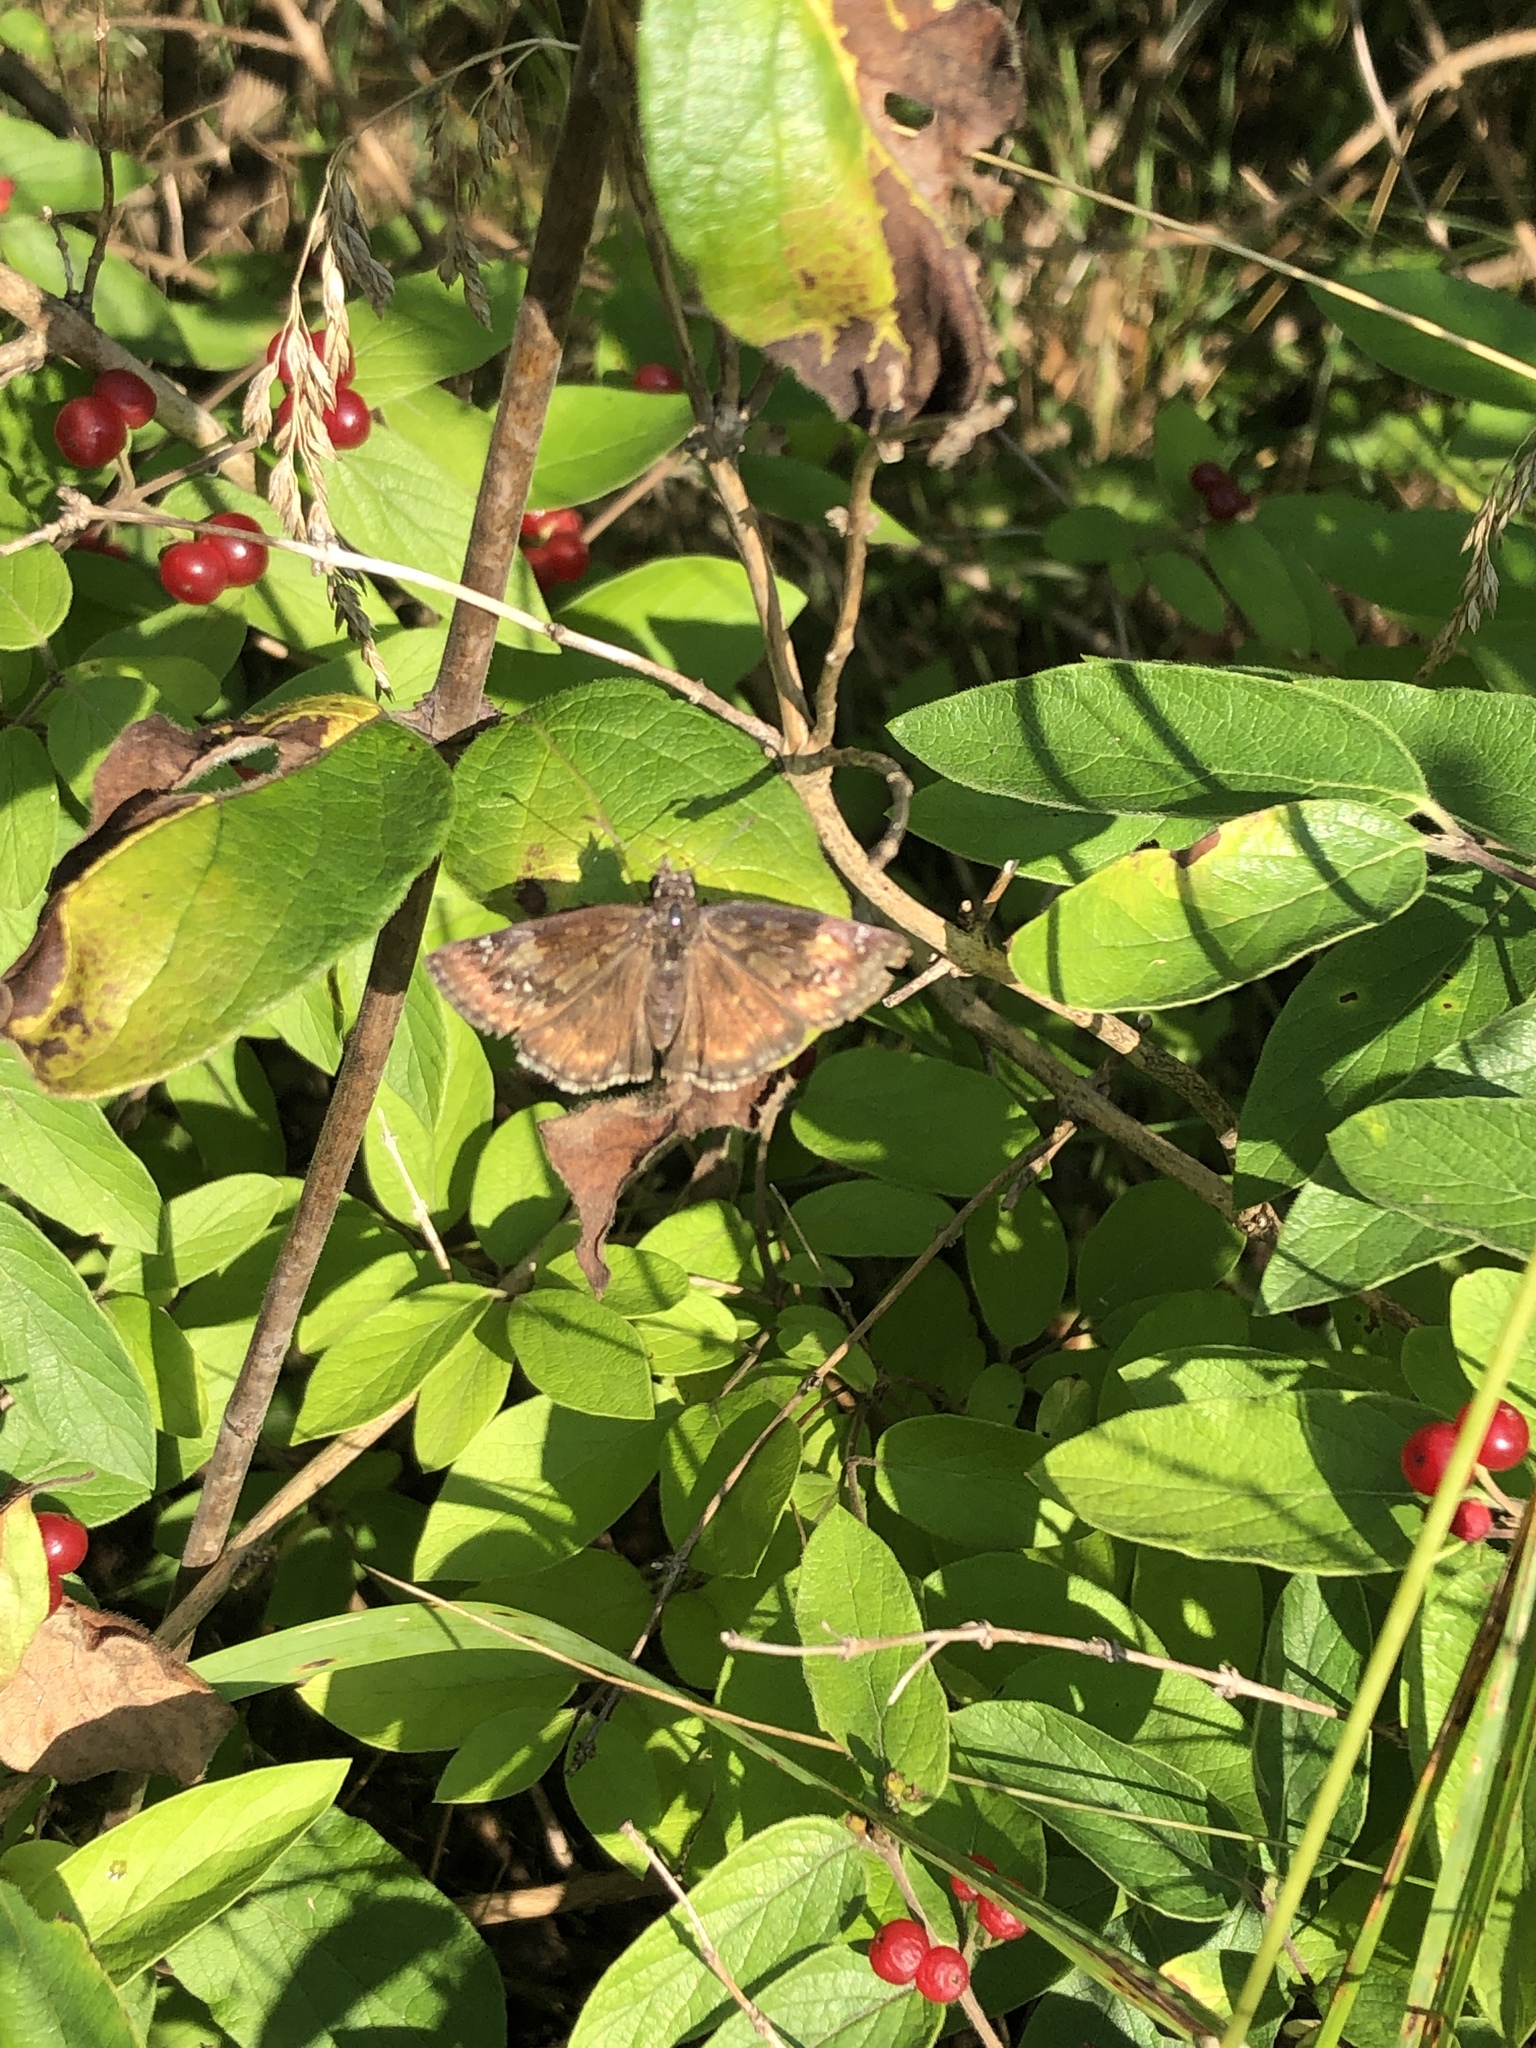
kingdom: Animalia
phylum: Arthropoda
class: Insecta
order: Lepidoptera
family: Hesperiidae
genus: Erynnis
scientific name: Erynnis baptisiae
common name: Wild indigo duskywing
